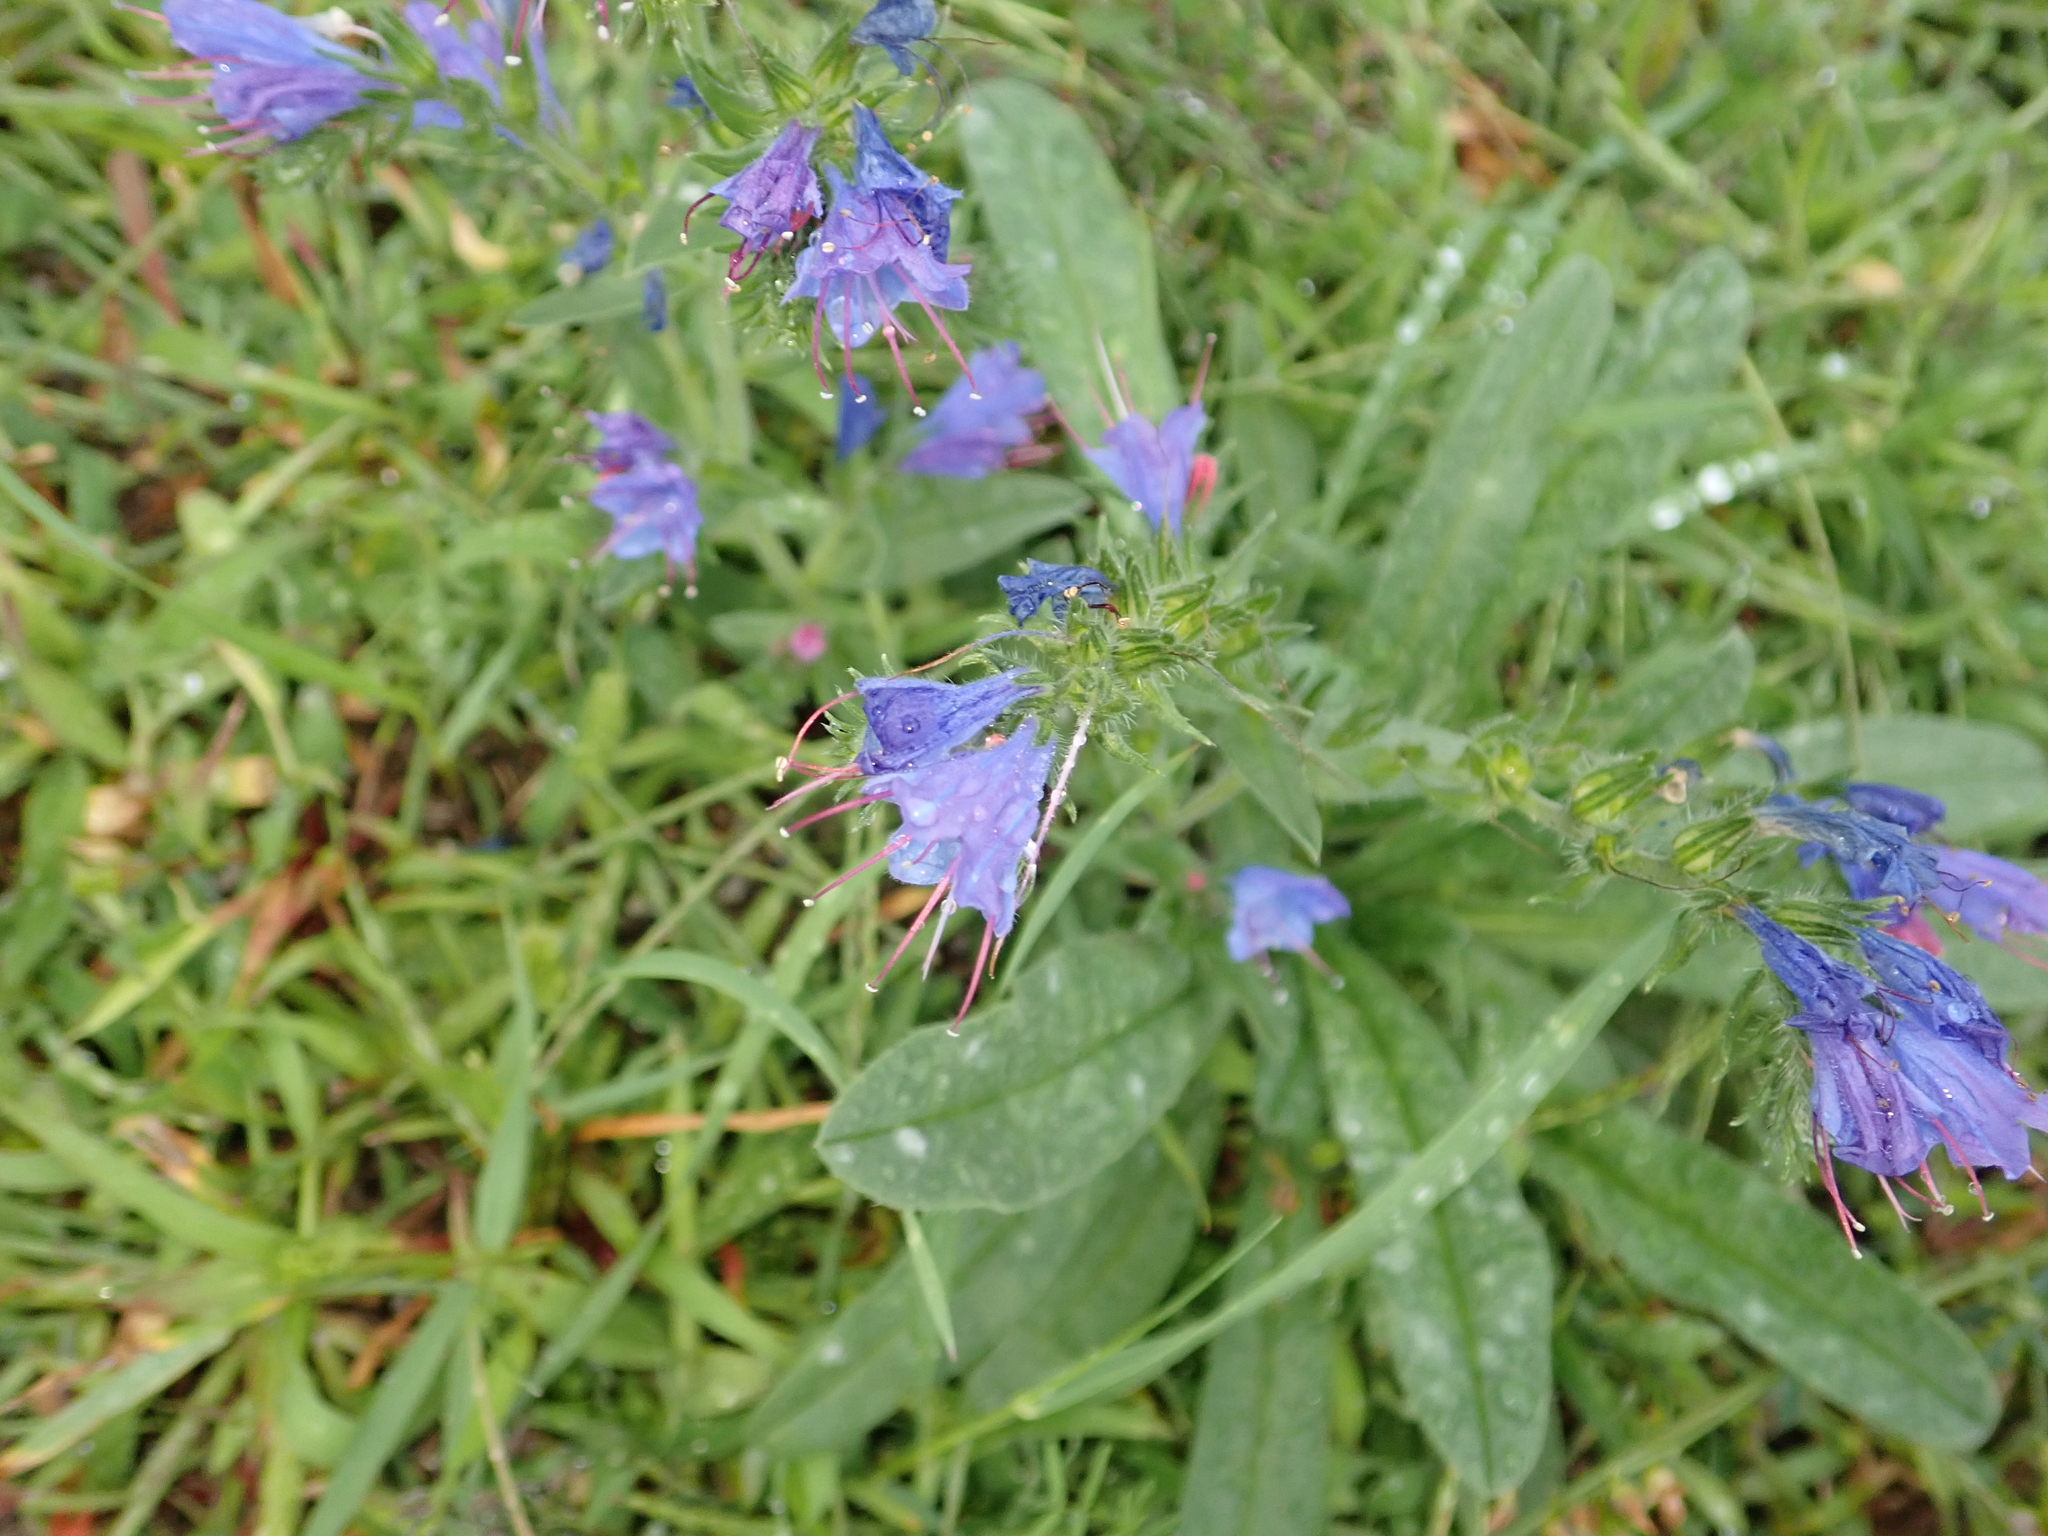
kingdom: Plantae
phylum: Tracheophyta
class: Magnoliopsida
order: Boraginales
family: Boraginaceae
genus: Echium
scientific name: Echium vulgare
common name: Common viper's bugloss
